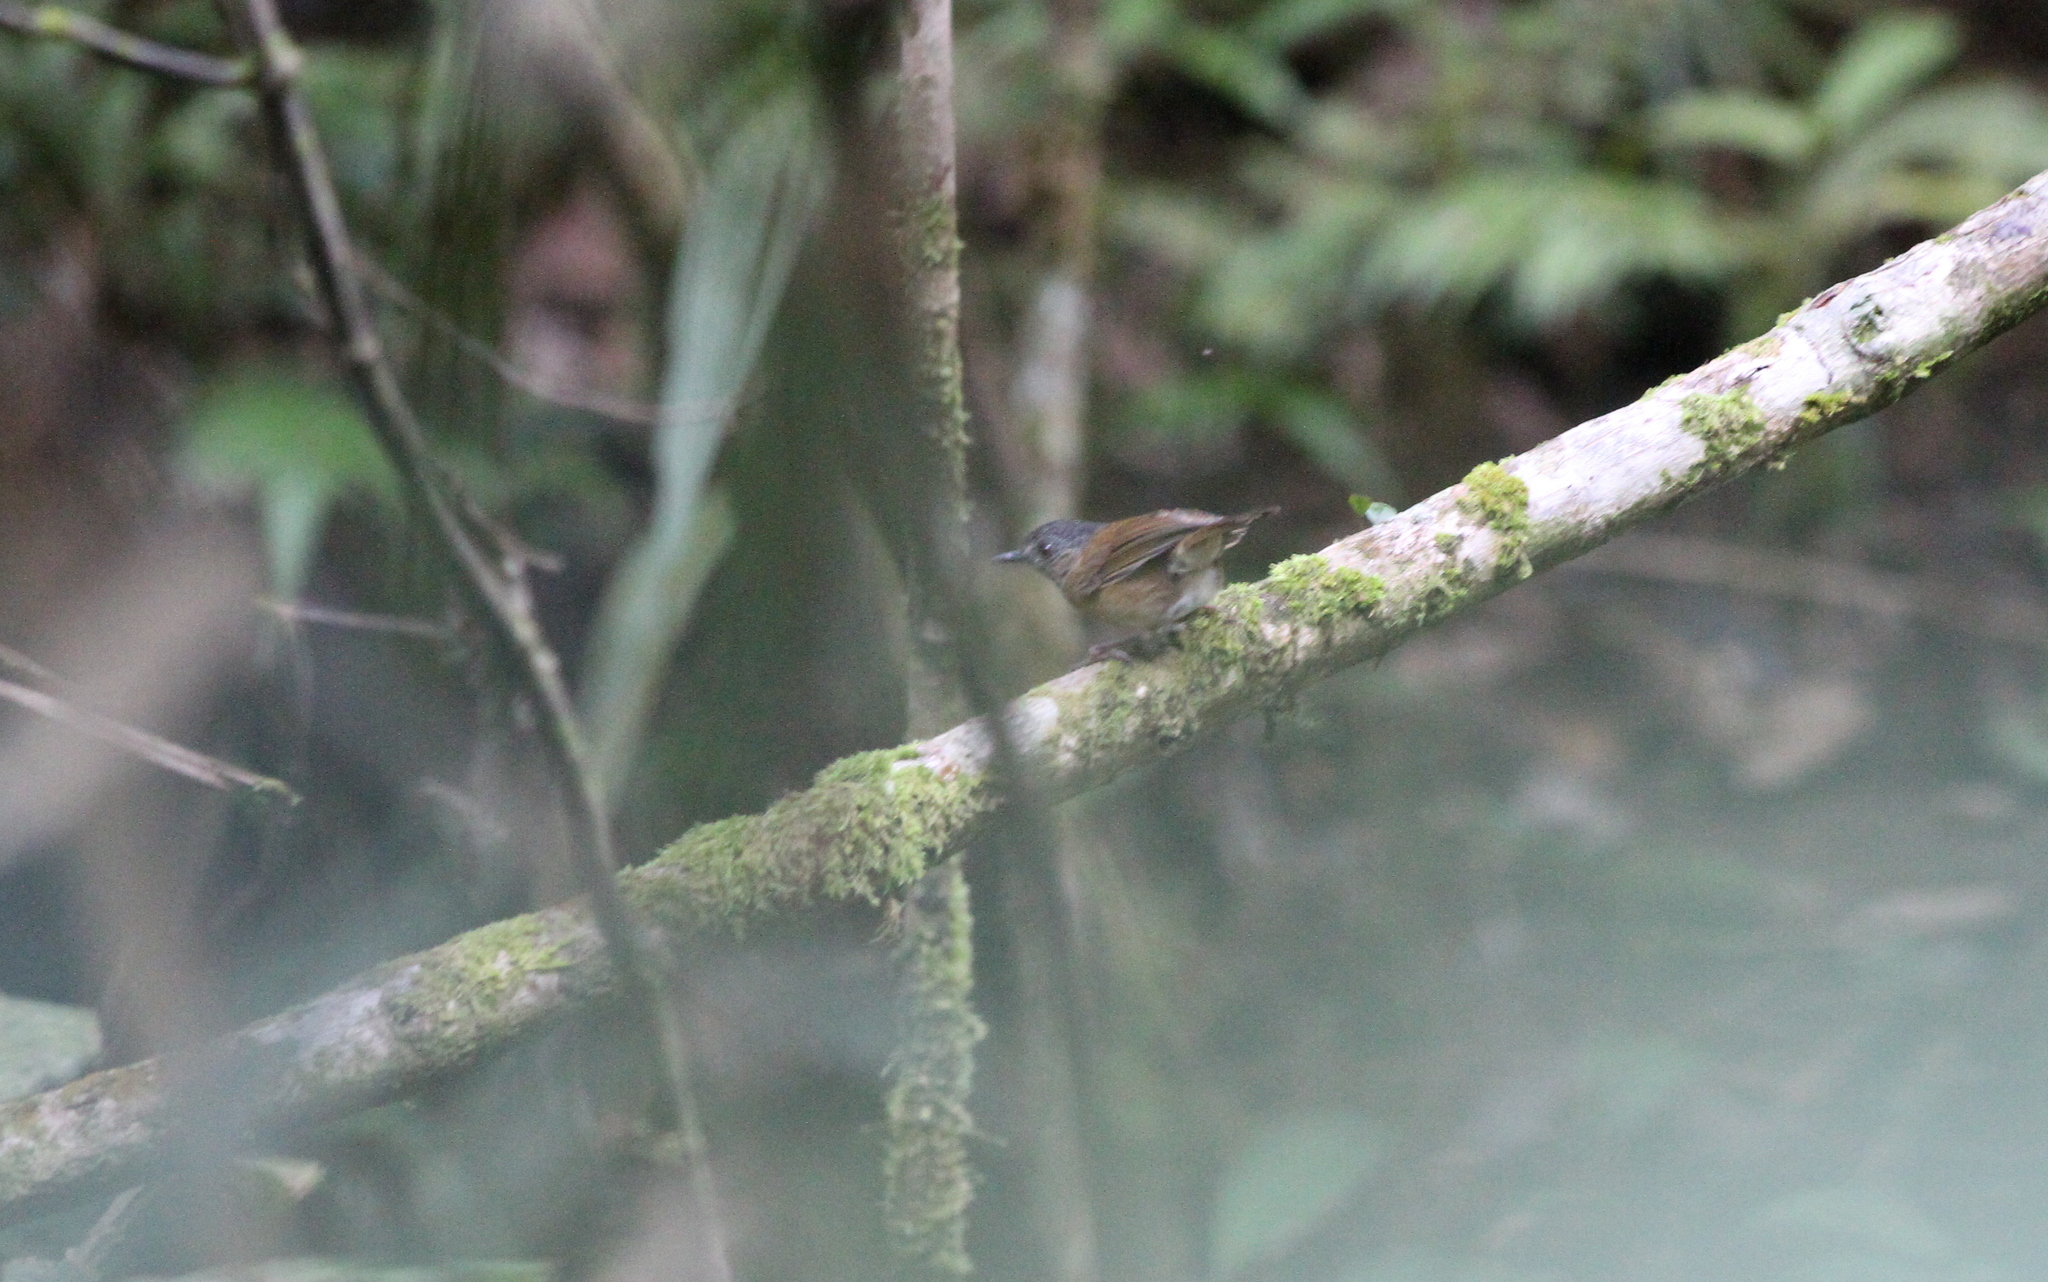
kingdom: Animalia
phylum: Chordata
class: Aves
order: Passeriformes
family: Pellorneidae
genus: Pellorneum
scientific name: Pellorneum pyrrogenys
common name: Temminck's babbler
